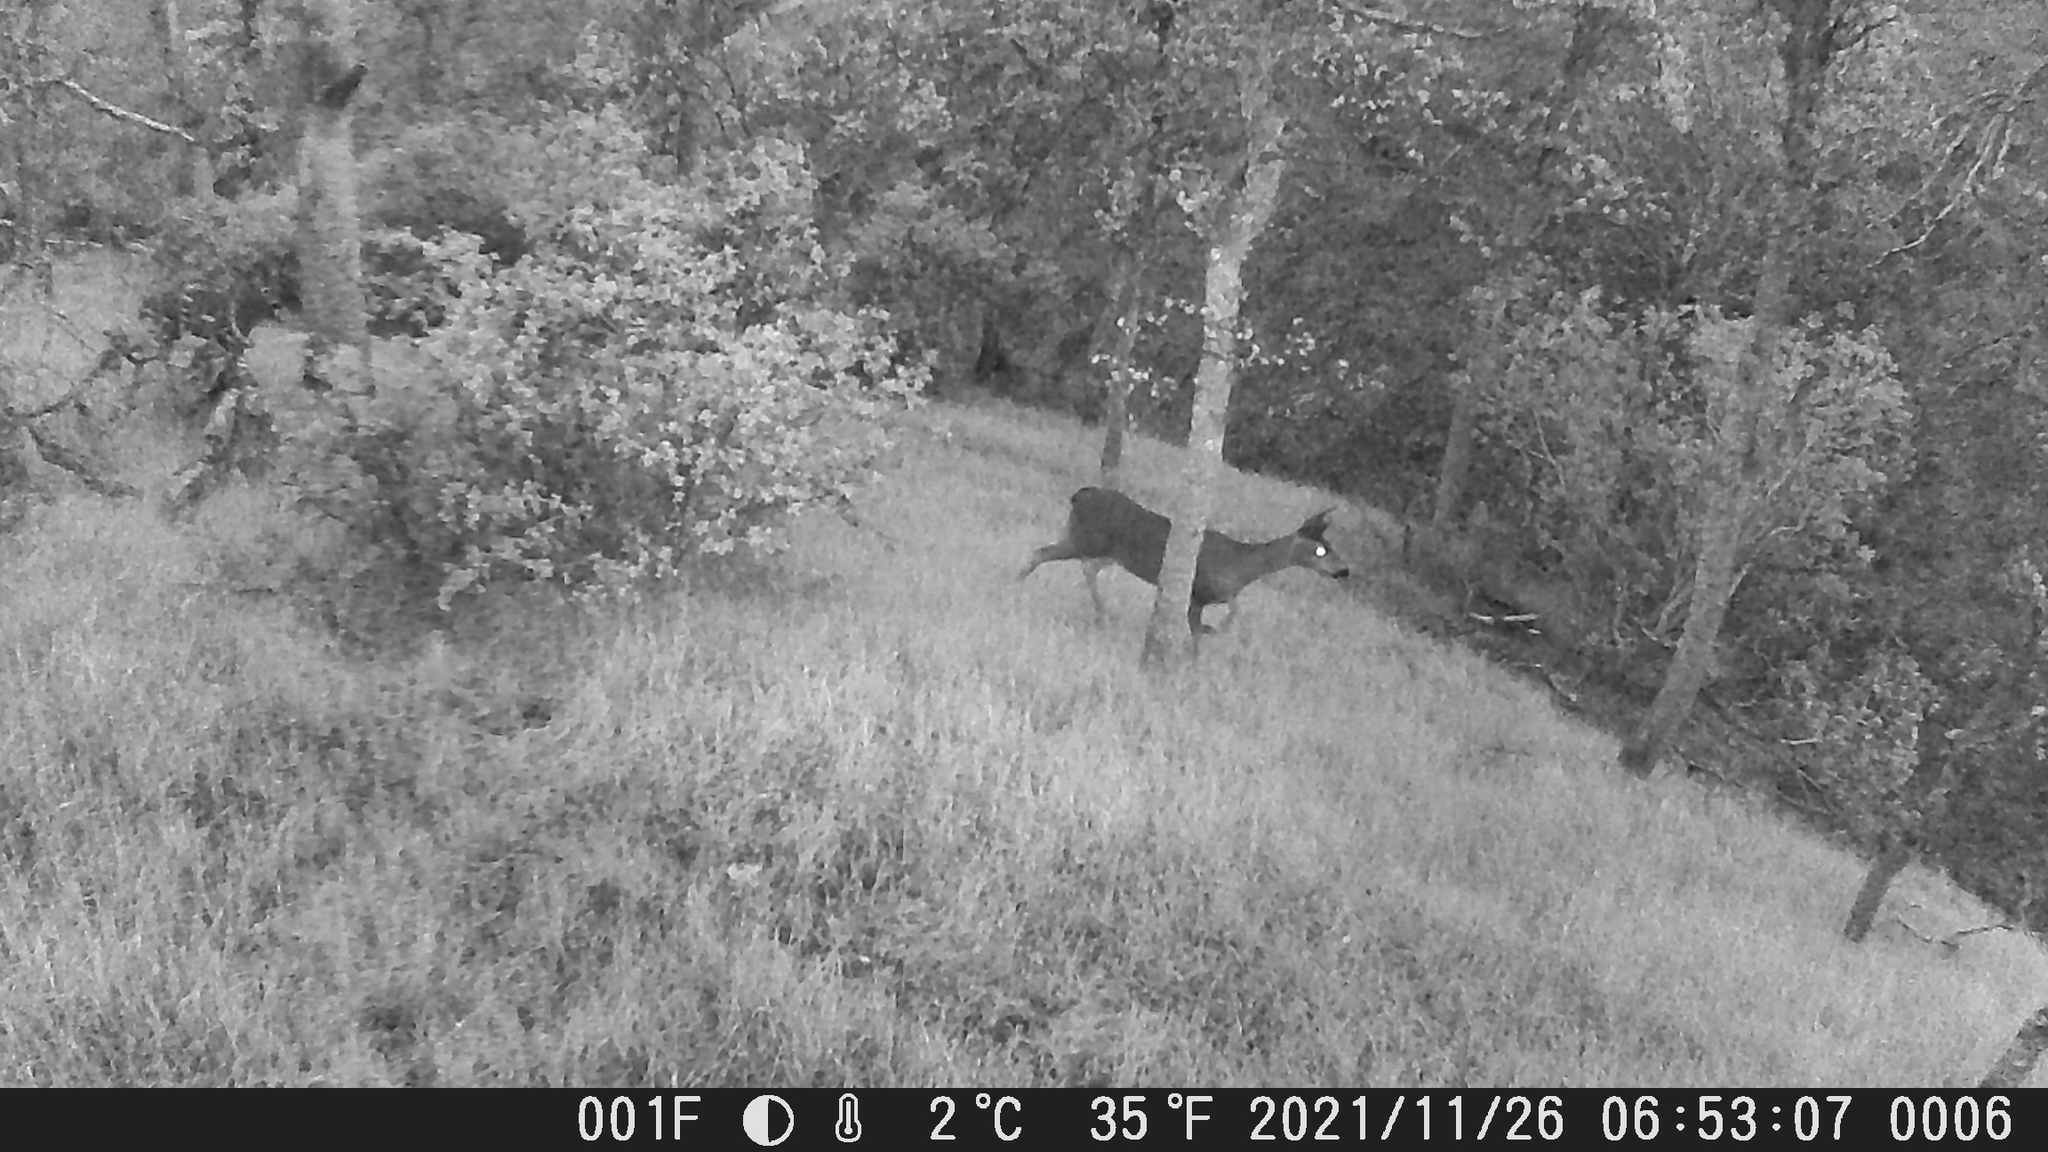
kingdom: Animalia
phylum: Chordata
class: Mammalia
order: Artiodactyla
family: Cervidae
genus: Odocoileus
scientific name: Odocoileus hemionus
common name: Mule deer
